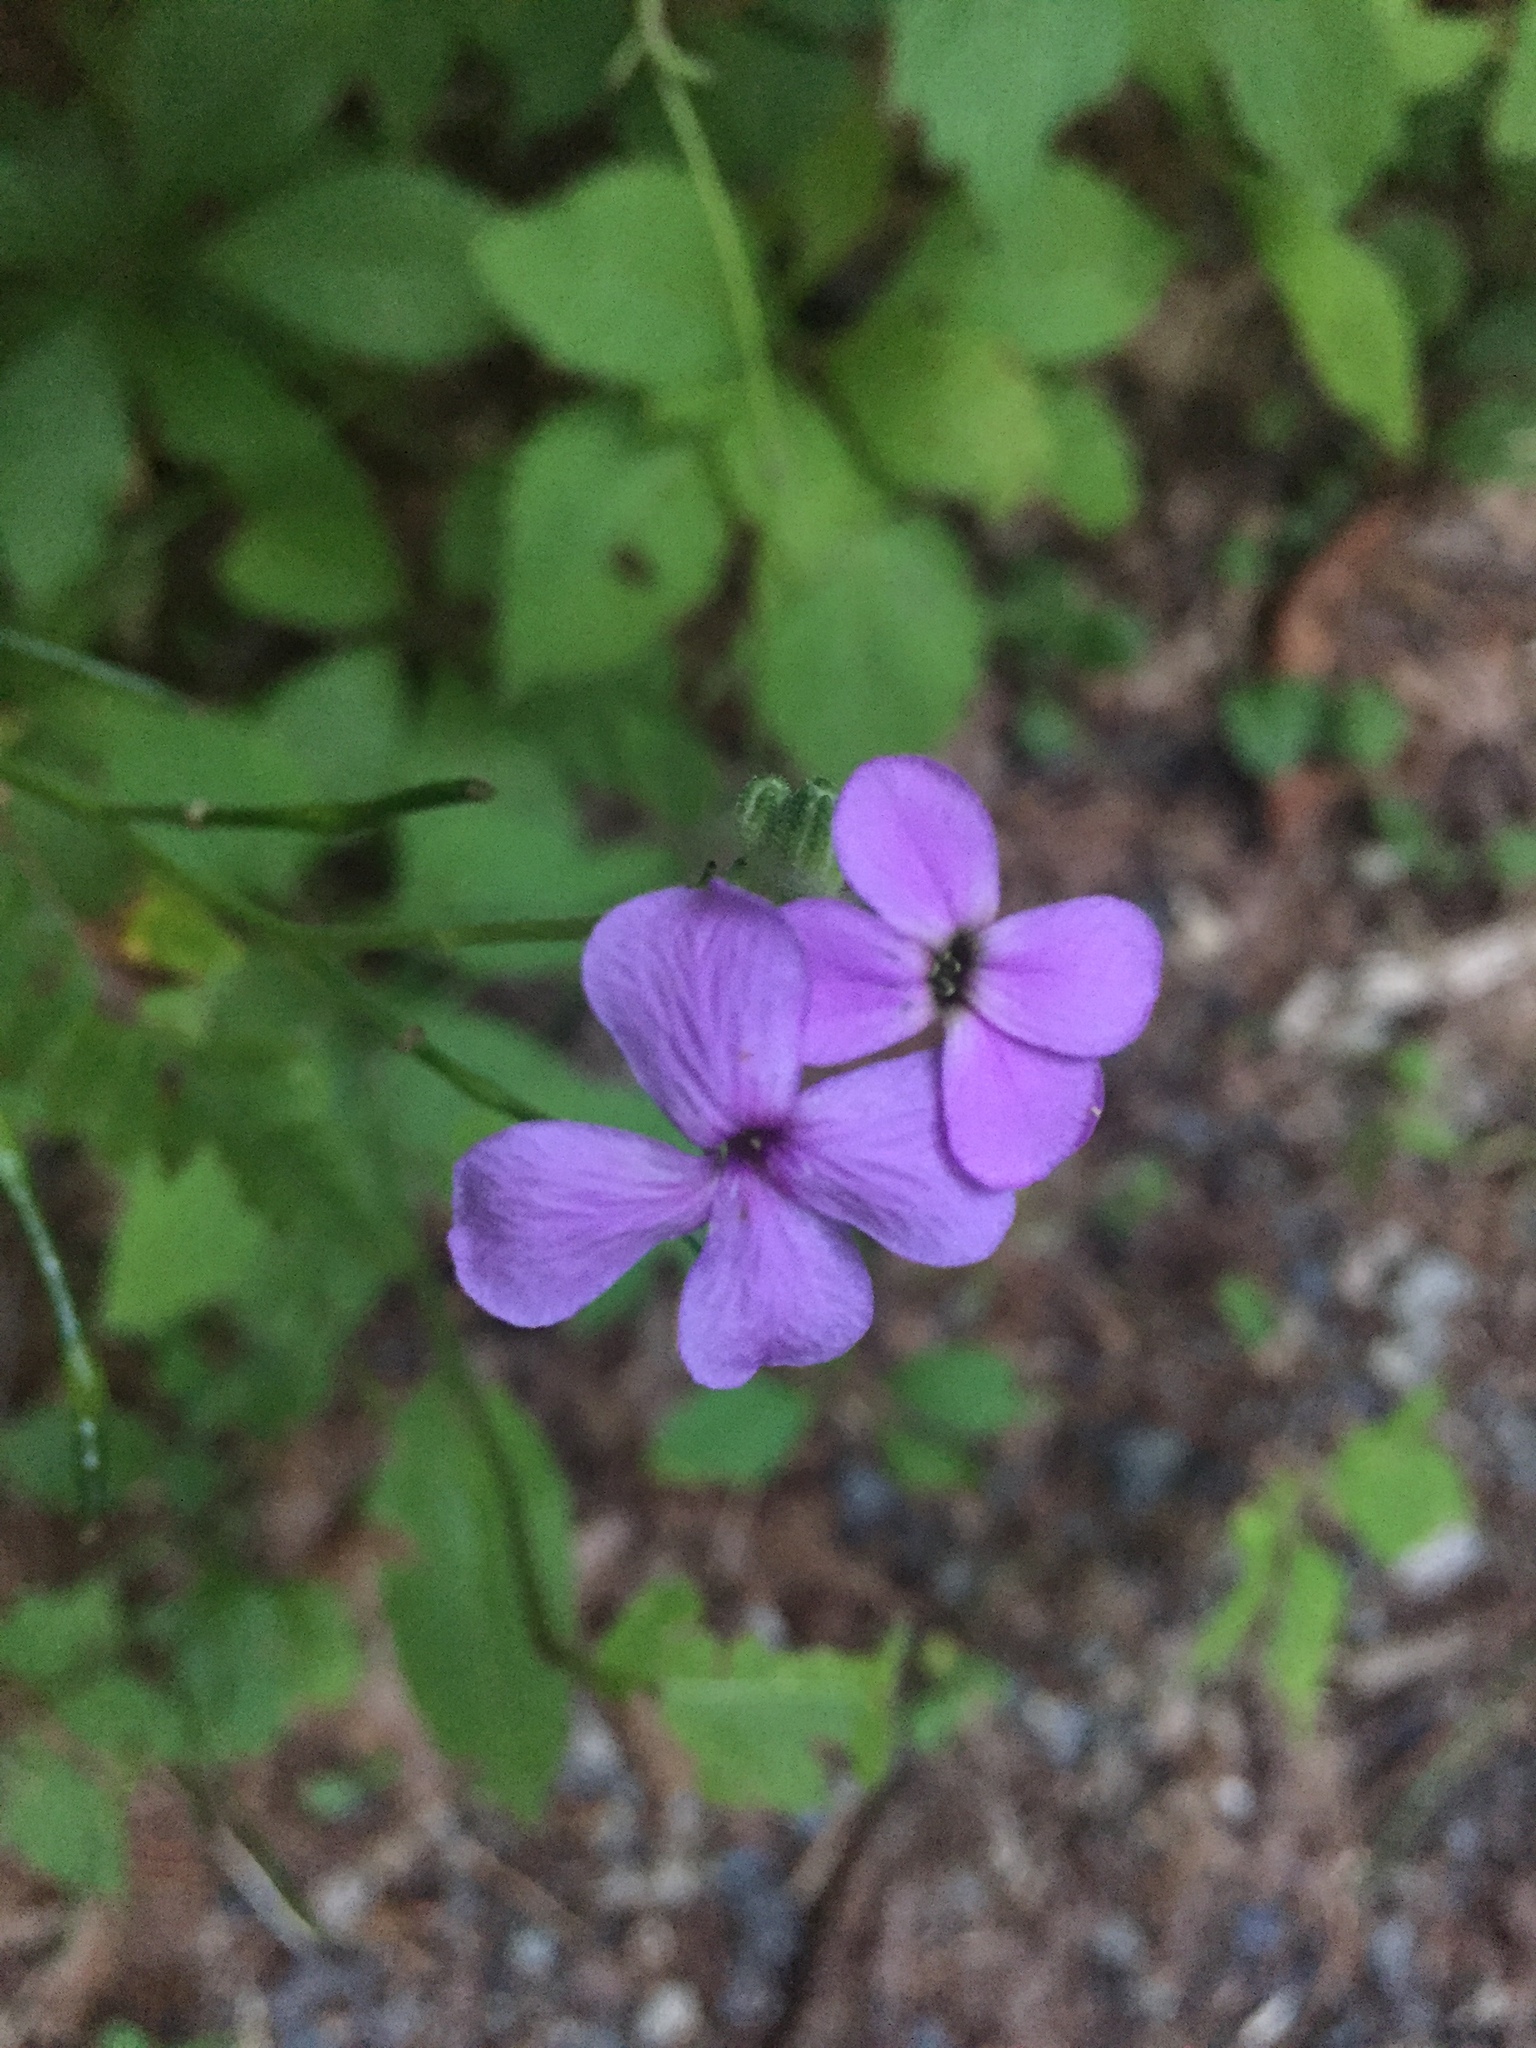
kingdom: Plantae
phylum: Tracheophyta
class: Magnoliopsida
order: Brassicales
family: Brassicaceae
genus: Hesperis
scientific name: Hesperis matronalis
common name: Dame's-violet
